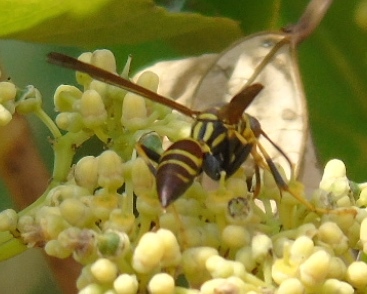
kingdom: Animalia
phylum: Arthropoda
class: Insecta
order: Hymenoptera
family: Eumenidae
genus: Polistes
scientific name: Polistes instabilis
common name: Unstable paper wasp
